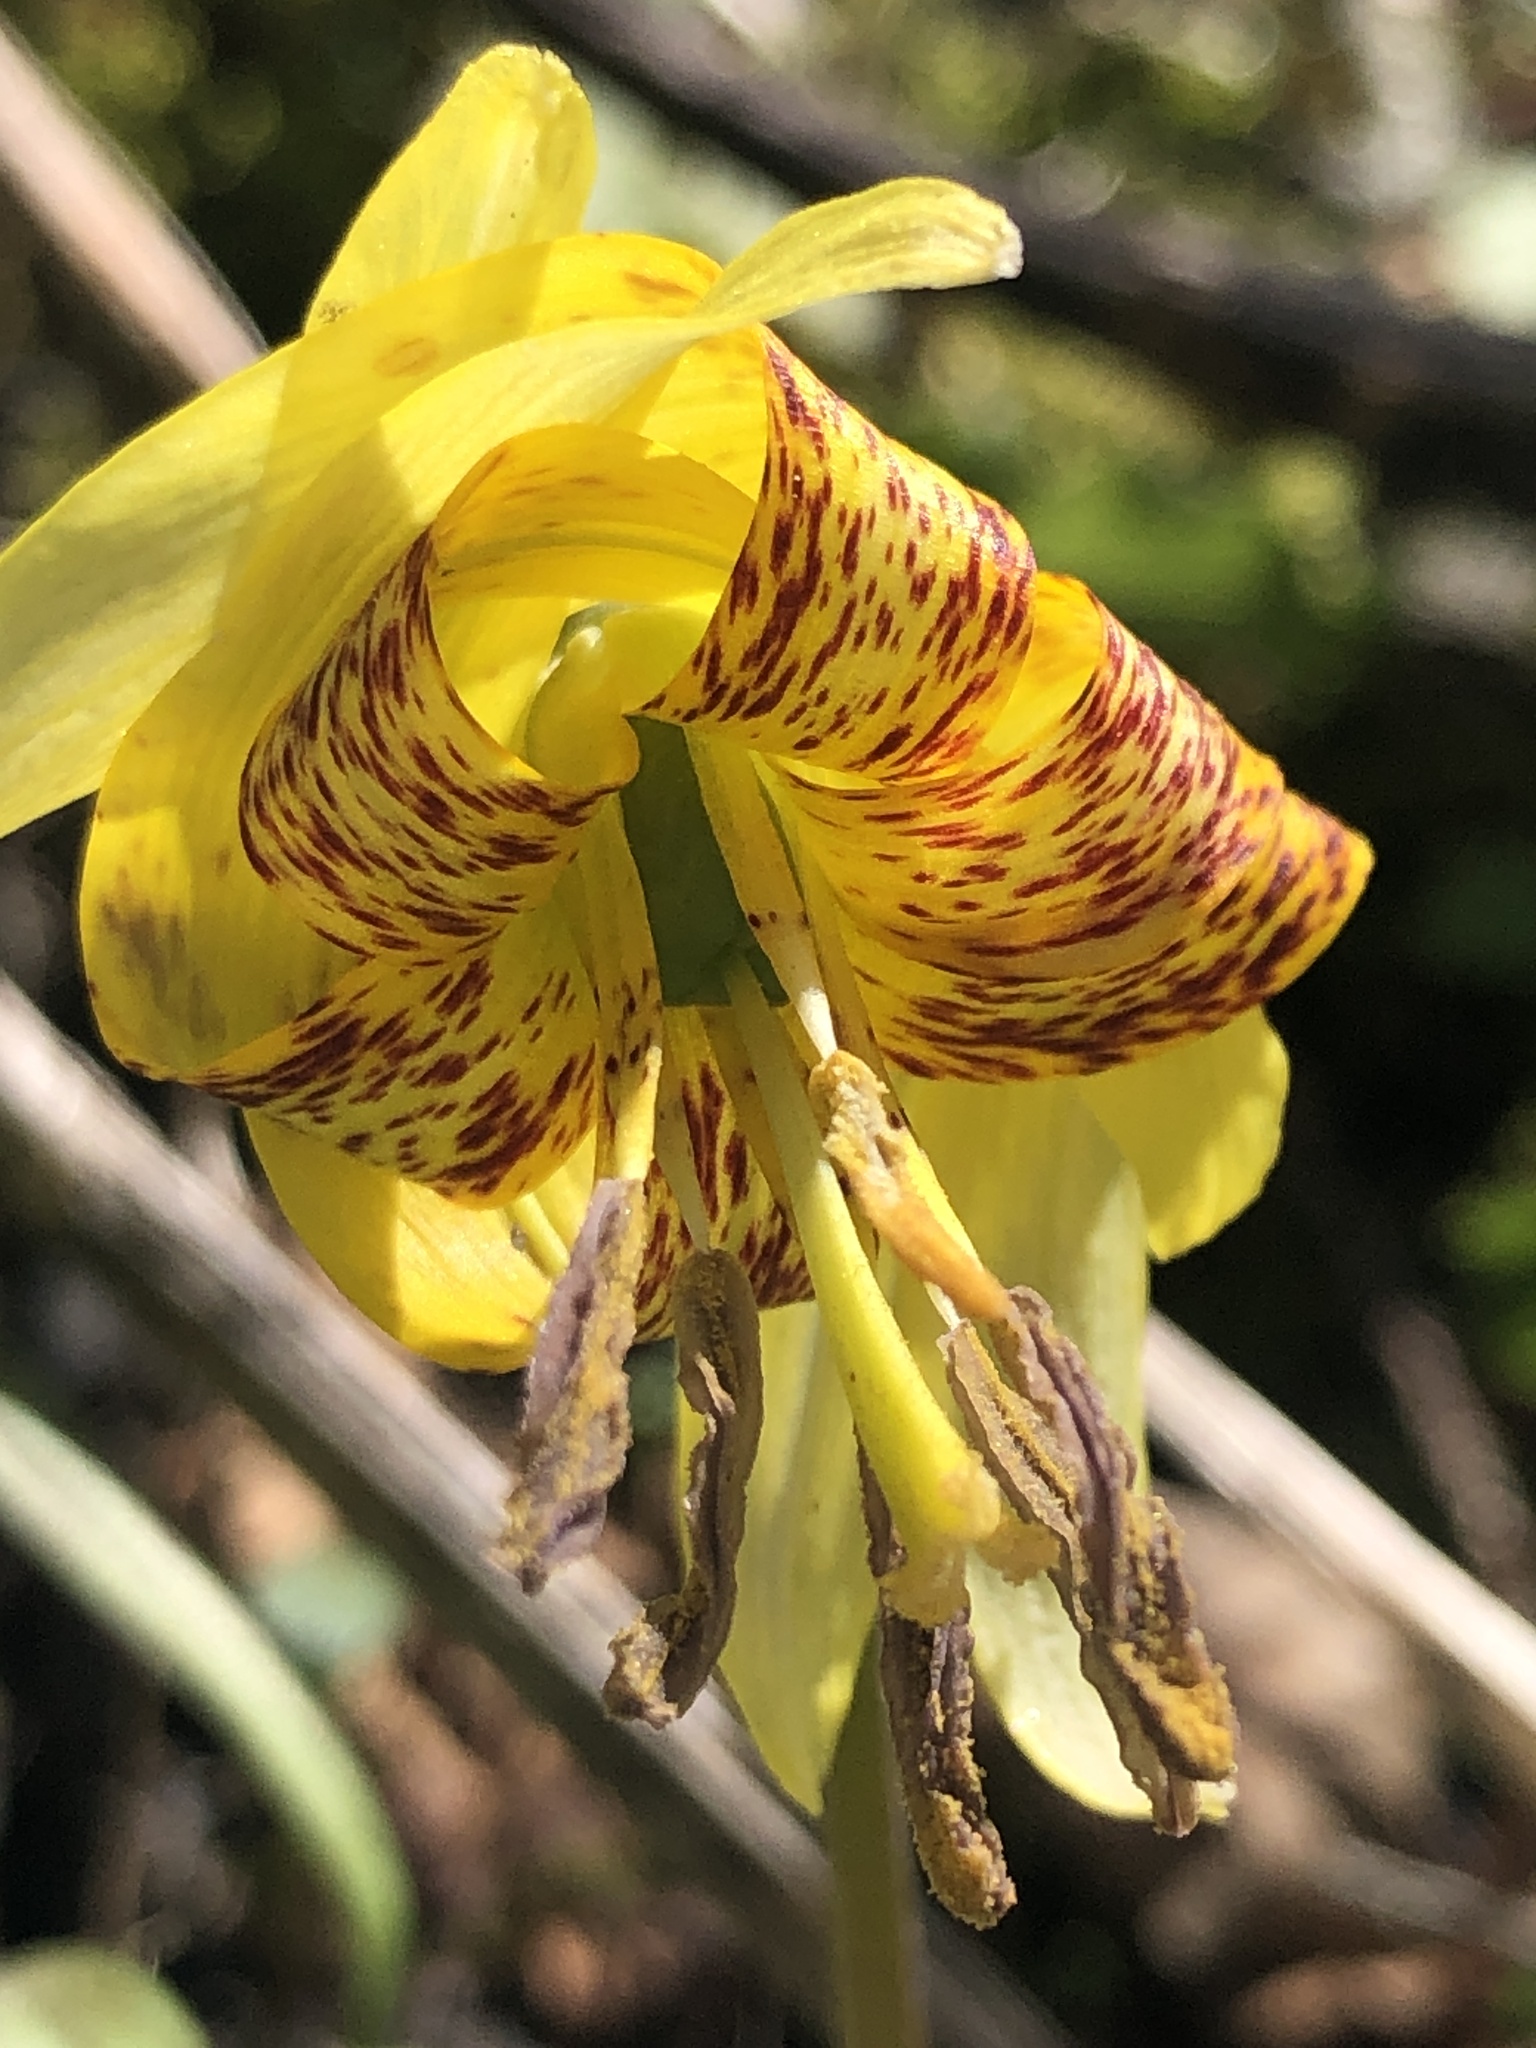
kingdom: Plantae
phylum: Tracheophyta
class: Liliopsida
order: Liliales
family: Liliaceae
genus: Erythronium
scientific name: Erythronium umbilicatum
